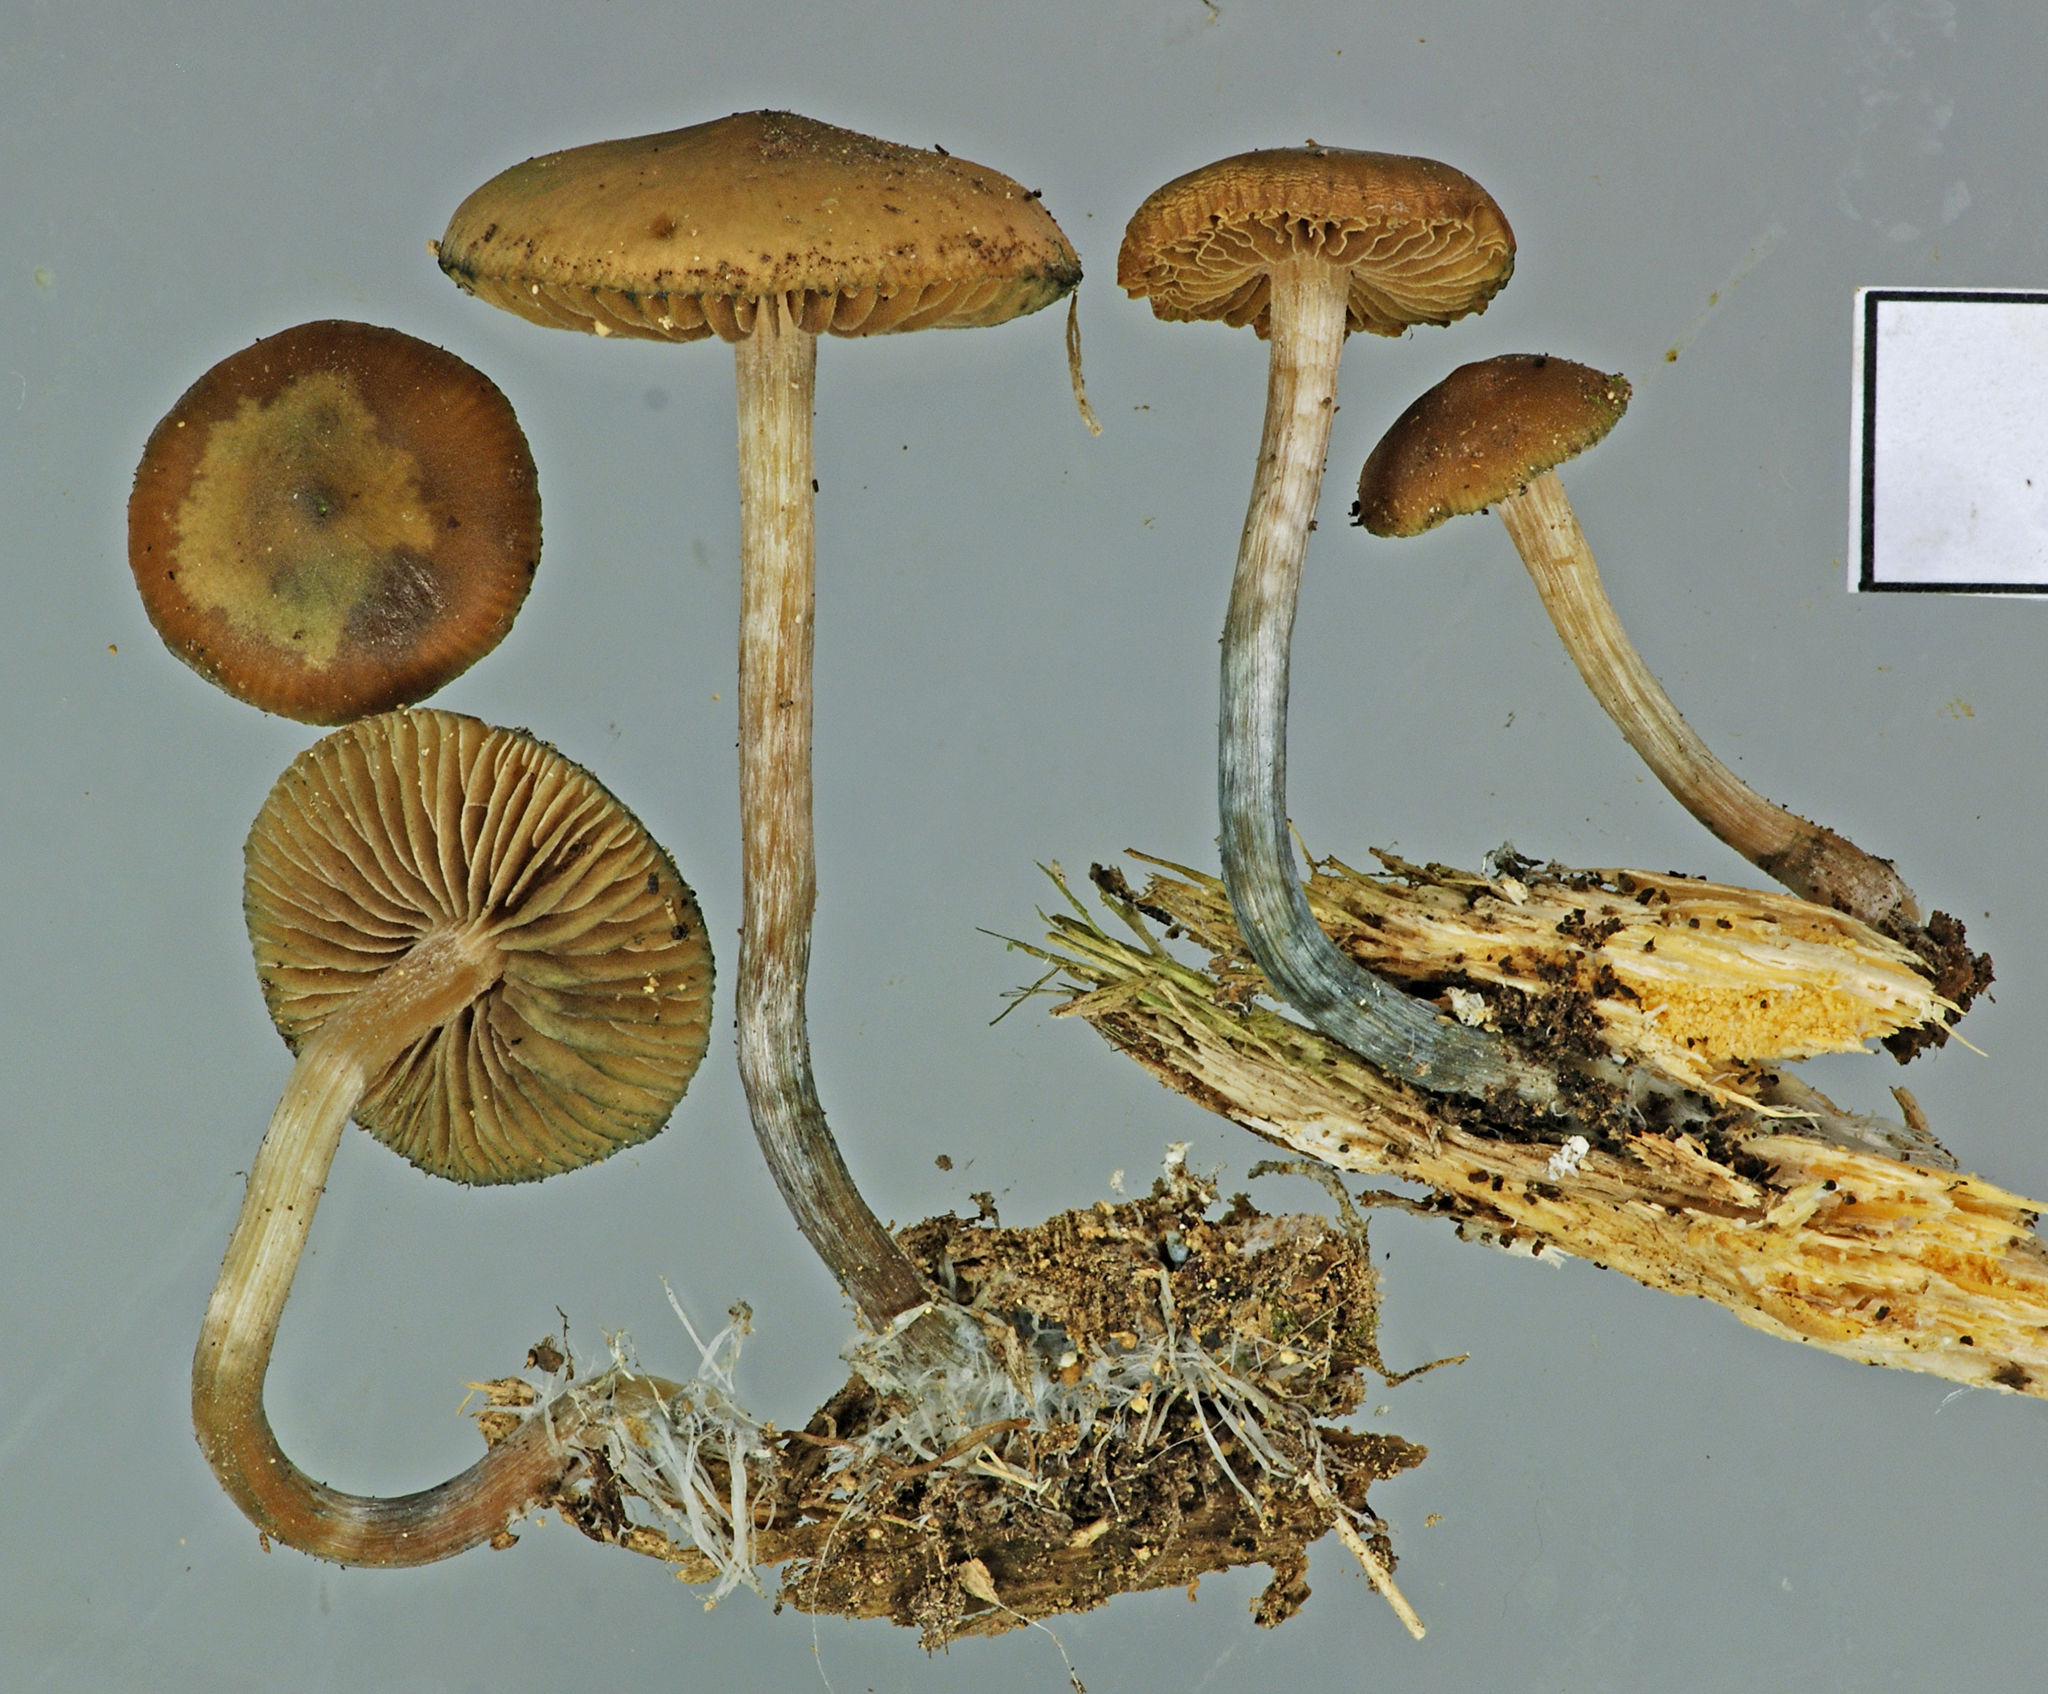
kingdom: Fungi
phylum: Basidiomycota
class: Agaricomycetes
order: Agaricales
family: Hymenogastraceae
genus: Psilocybe
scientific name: Psilocybe makarorae
